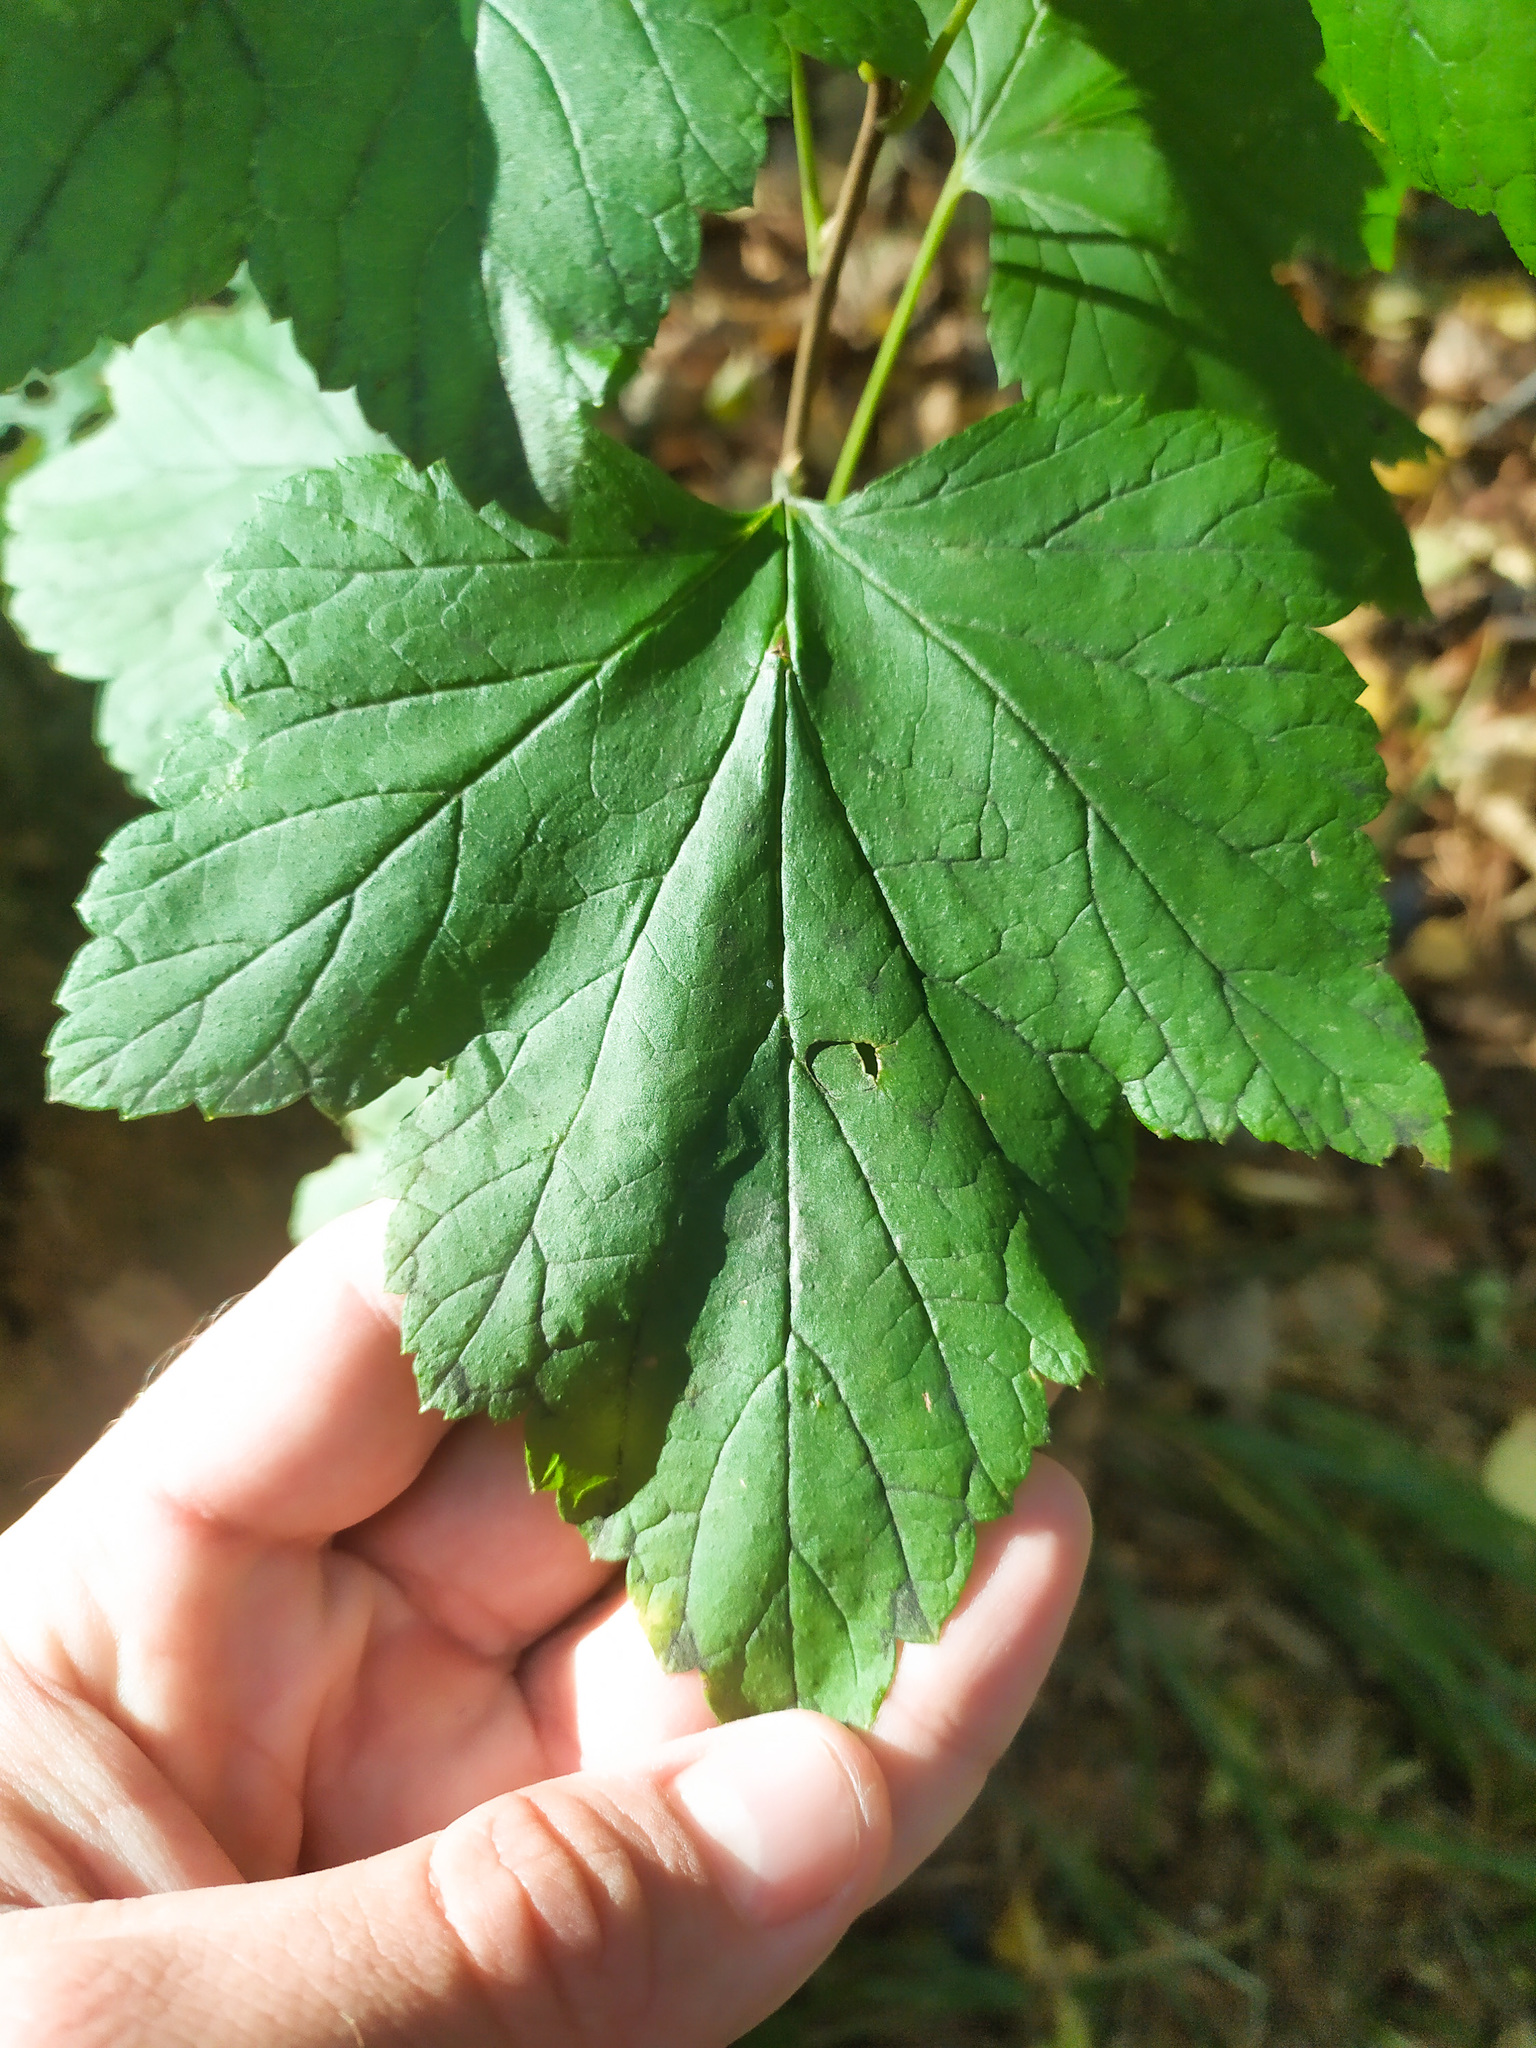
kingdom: Plantae
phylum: Tracheophyta
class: Magnoliopsida
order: Saxifragales
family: Grossulariaceae
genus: Ribes
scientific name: Ribes nigrum
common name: Black currant
